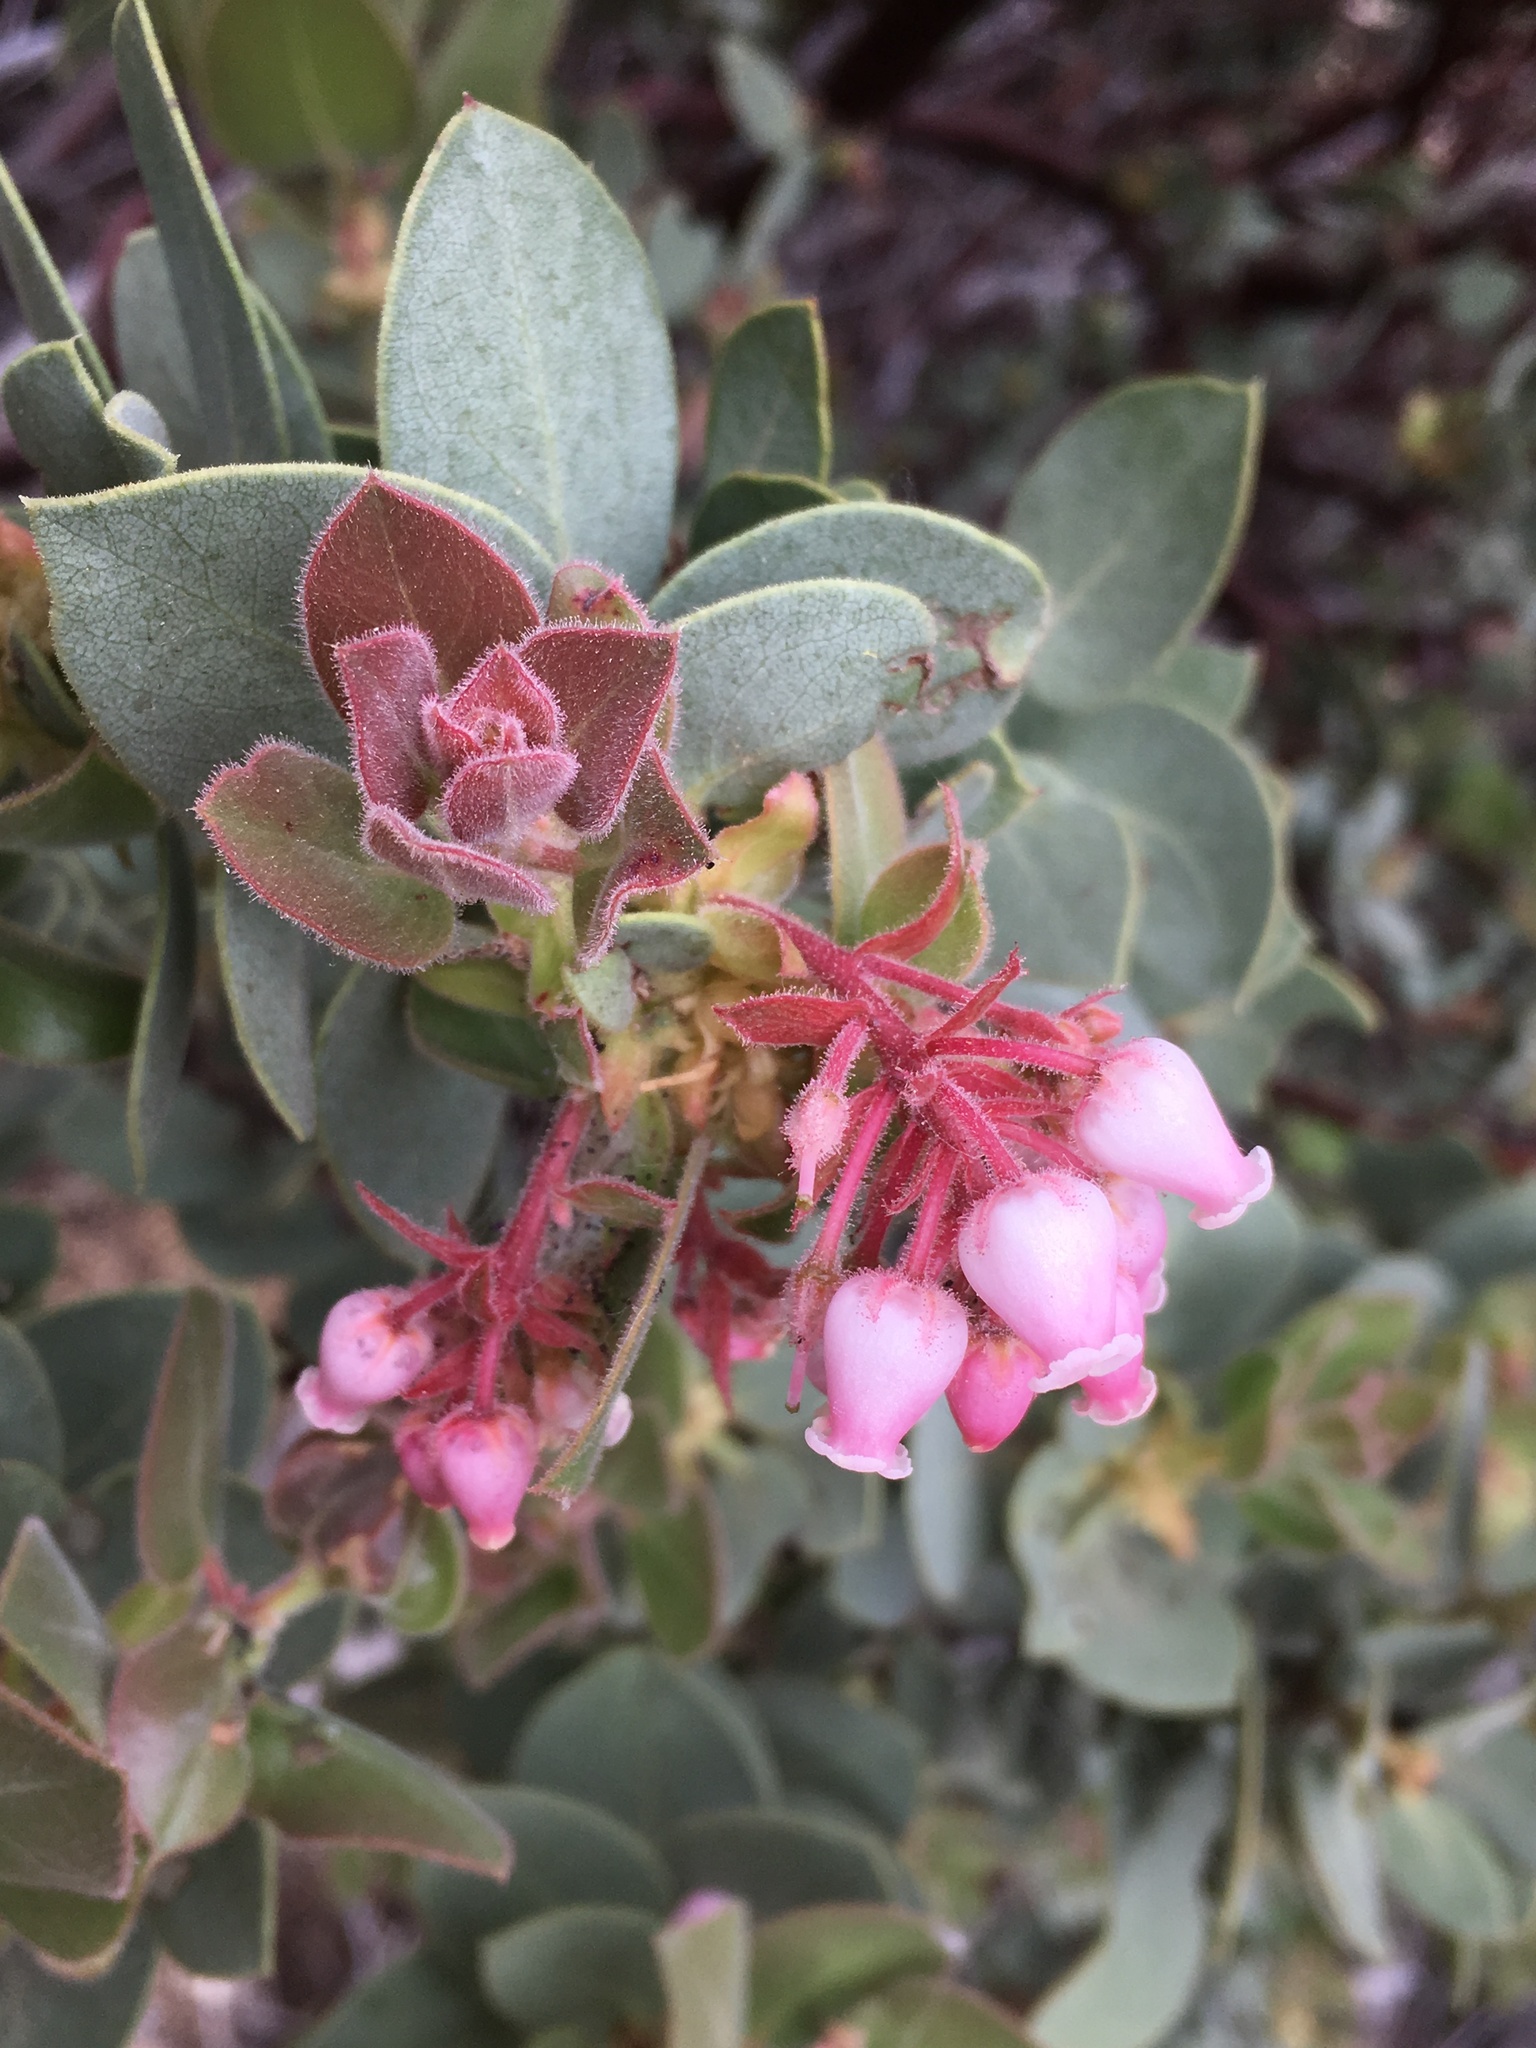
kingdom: Plantae
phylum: Tracheophyta
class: Magnoliopsida
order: Ericales
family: Ericaceae
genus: Arctostaphylos
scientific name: Arctostaphylos pringlei
